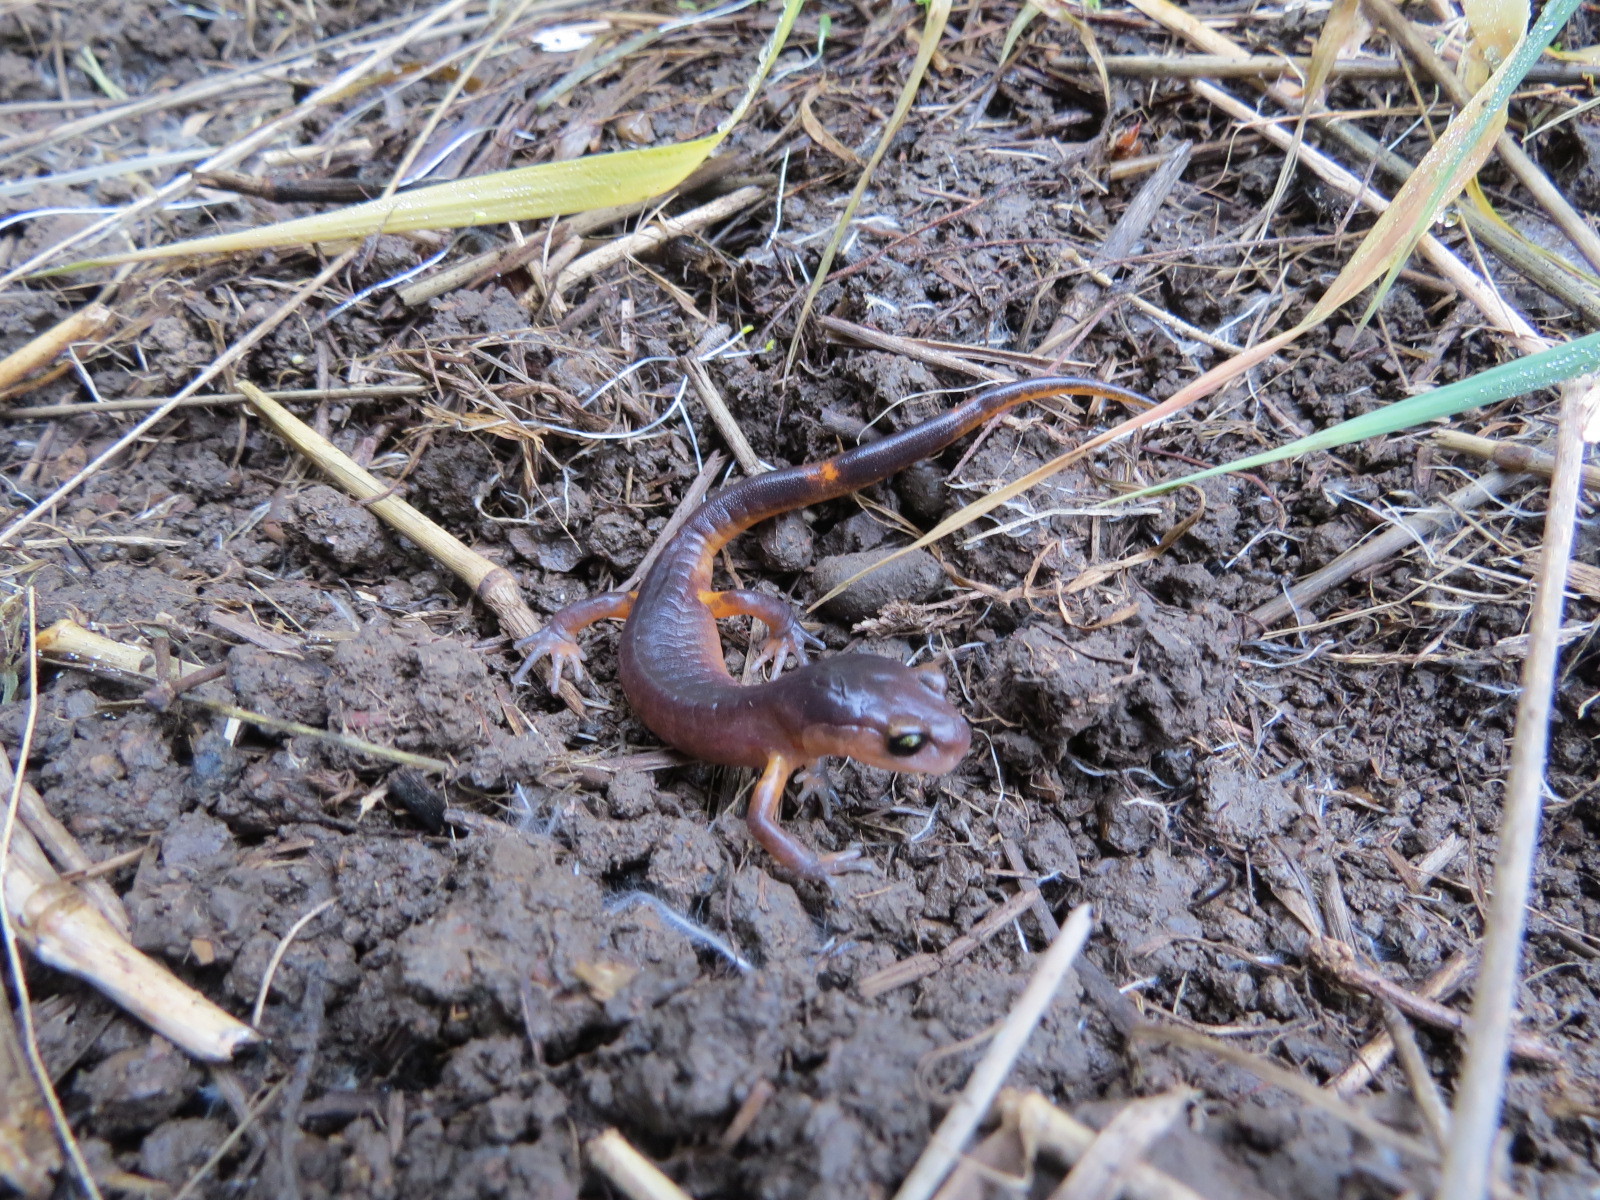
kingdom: Animalia
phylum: Chordata
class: Amphibia
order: Caudata
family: Plethodontidae
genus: Ensatina
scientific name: Ensatina eschscholtzii
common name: Ensatina
